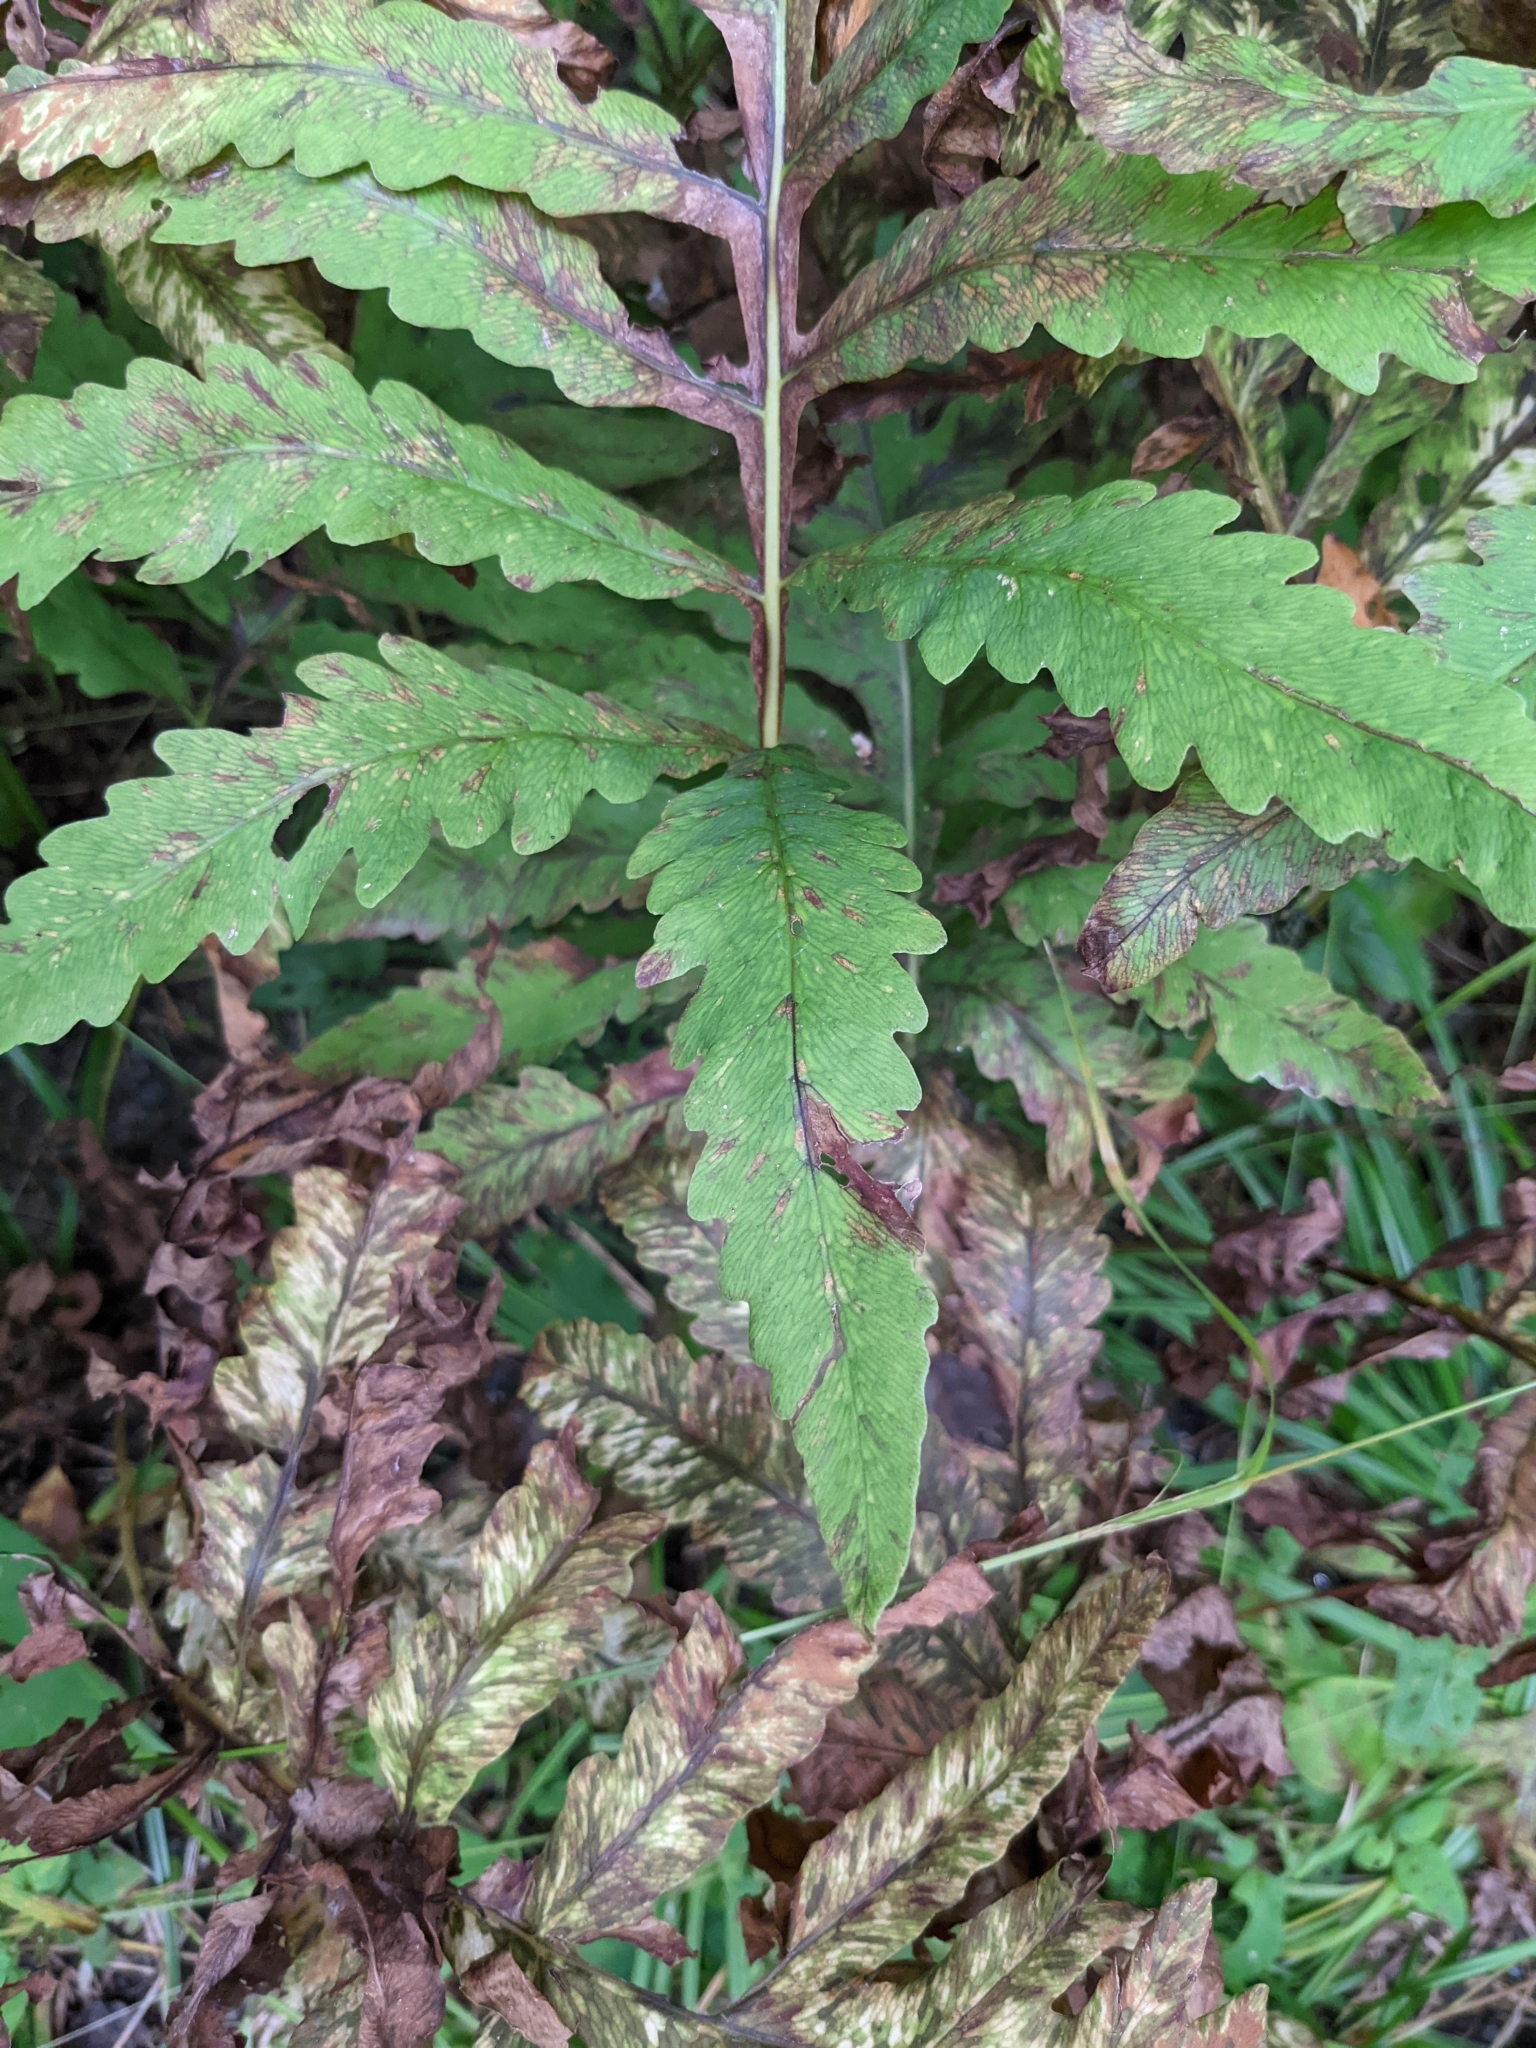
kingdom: Plantae
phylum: Tracheophyta
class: Polypodiopsida
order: Polypodiales
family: Onocleaceae
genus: Onoclea
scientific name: Onoclea sensibilis
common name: Sensitive fern
